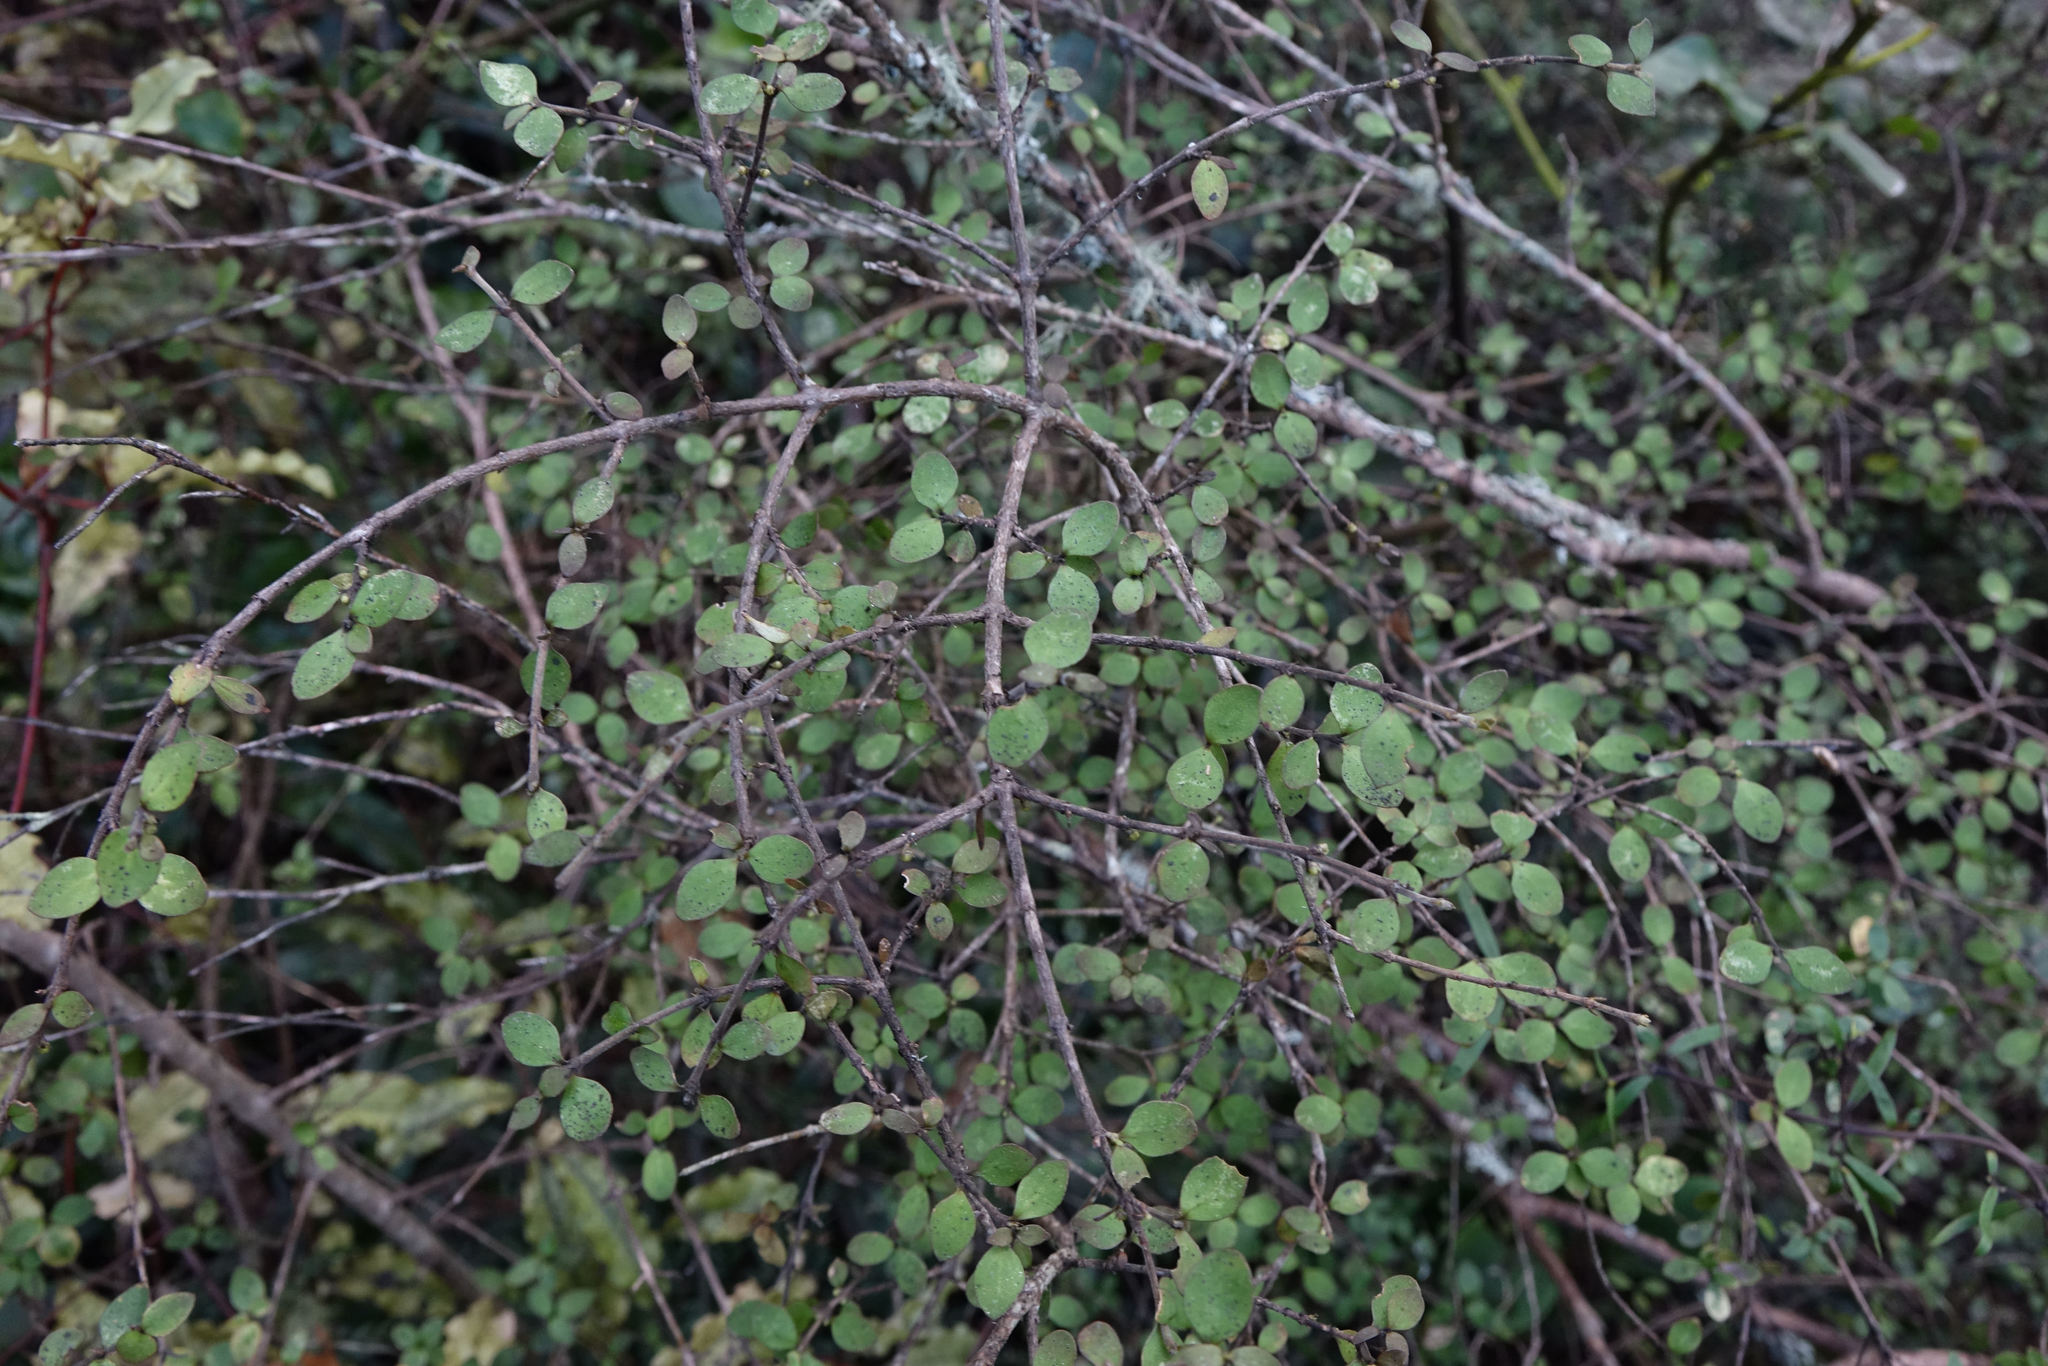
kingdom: Plantae
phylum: Tracheophyta
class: Magnoliopsida
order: Gentianales
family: Rubiaceae
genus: Coprosma
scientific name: Coprosma rhamnoides
